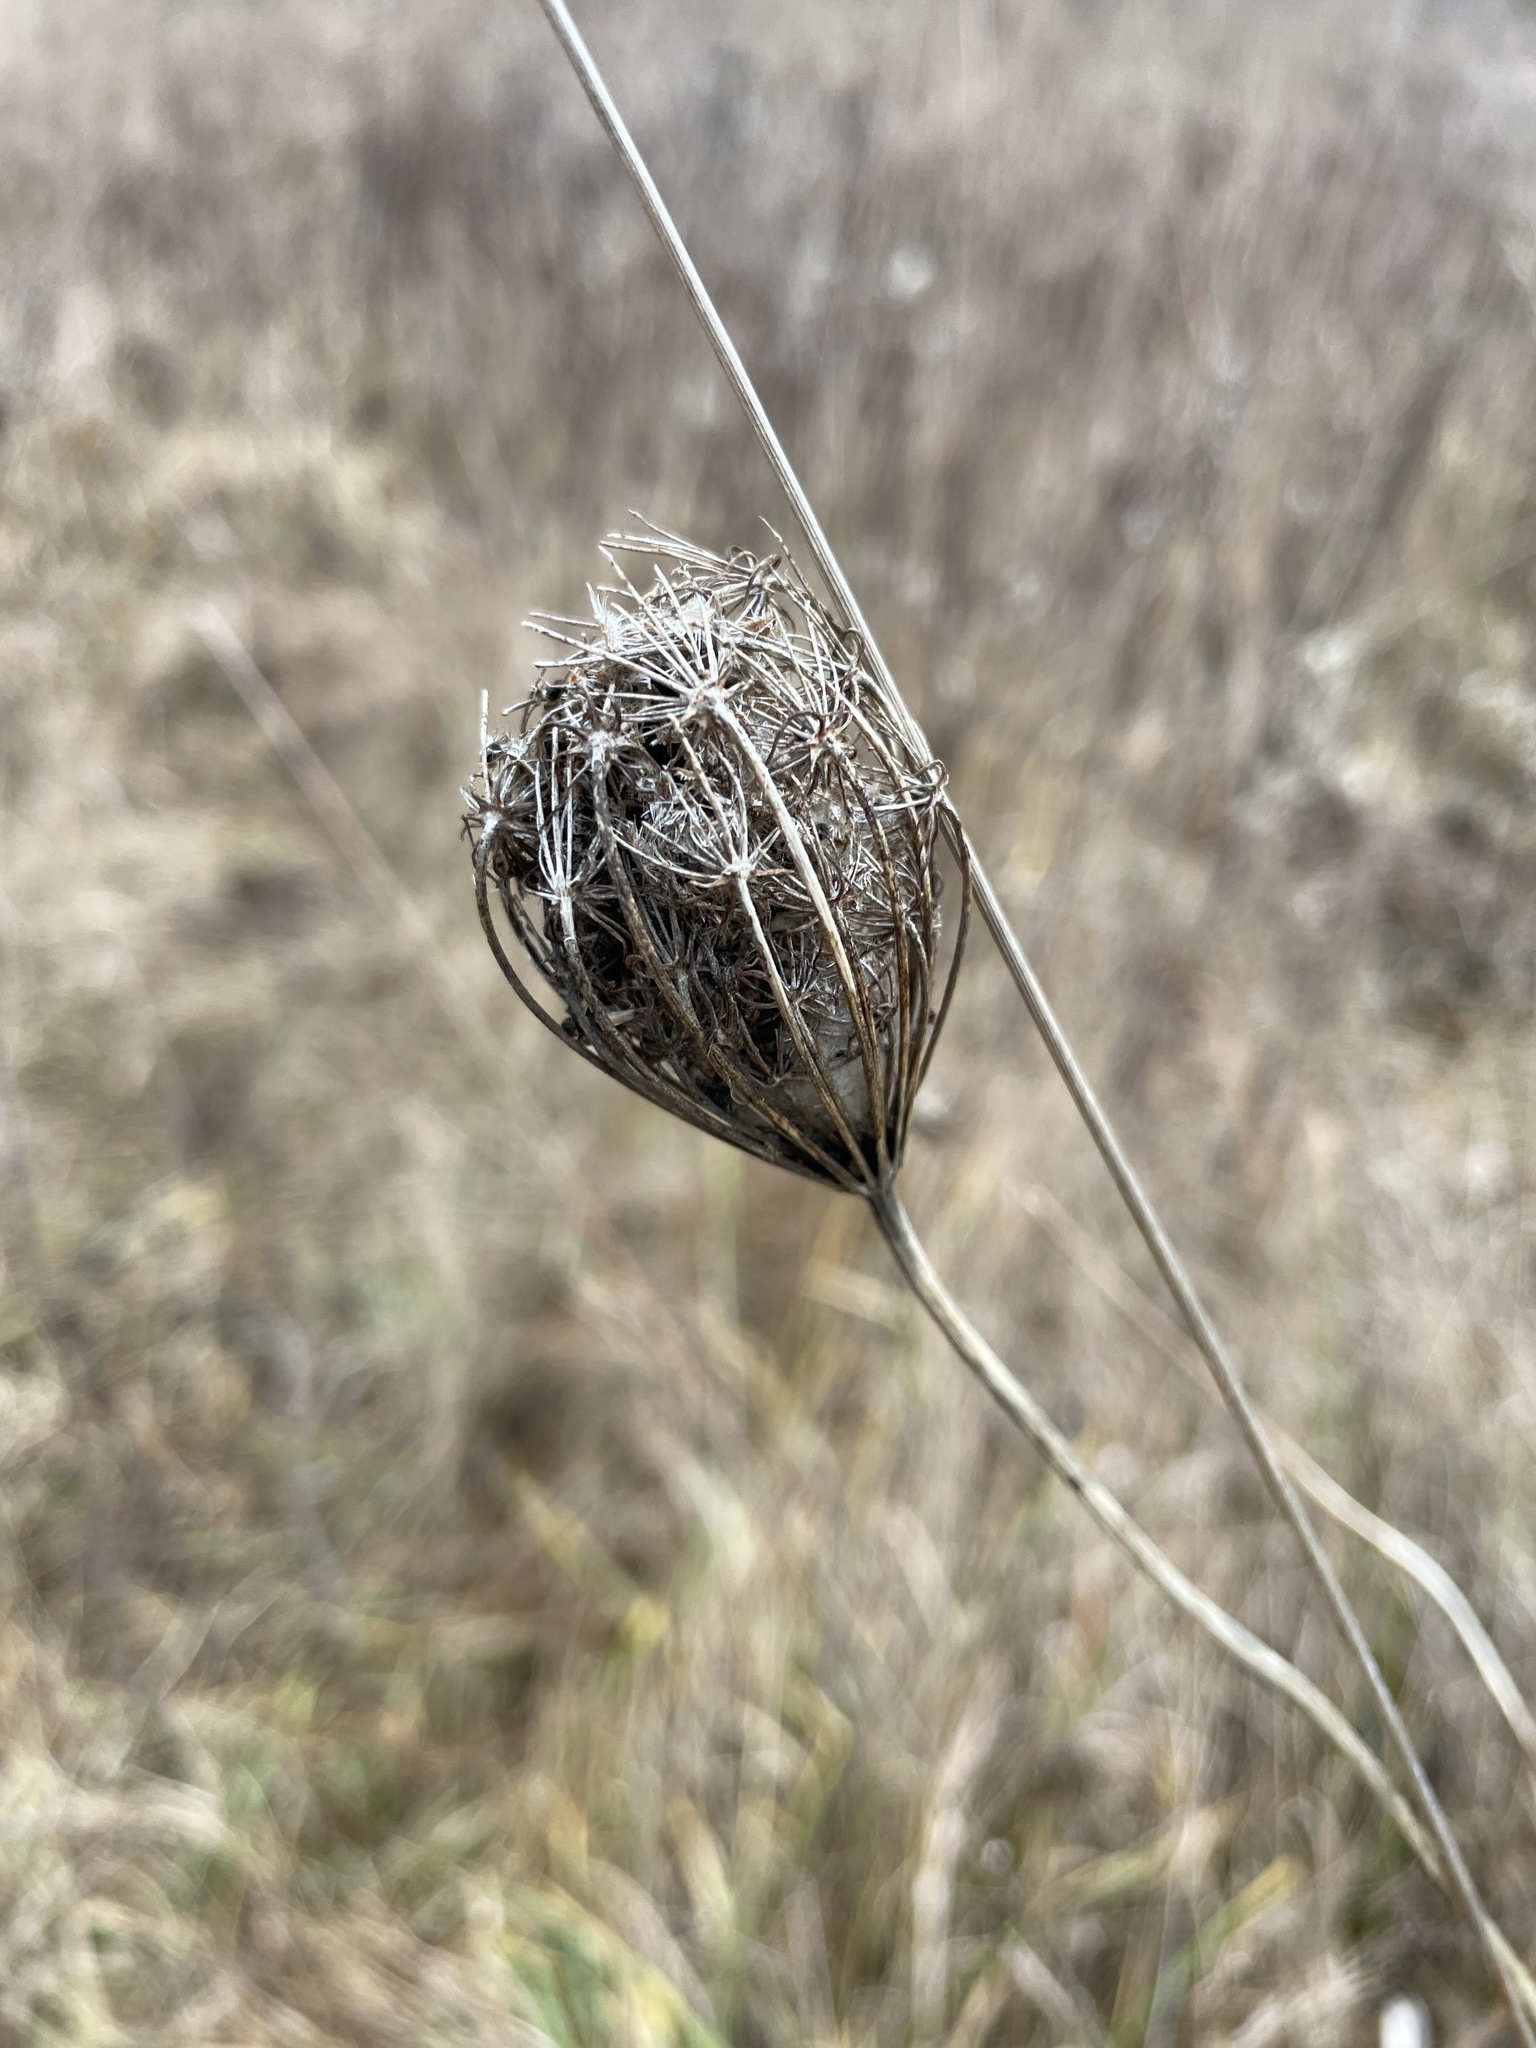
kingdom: Plantae
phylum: Tracheophyta
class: Magnoliopsida
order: Apiales
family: Apiaceae
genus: Daucus
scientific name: Daucus carota
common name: Wild carrot
